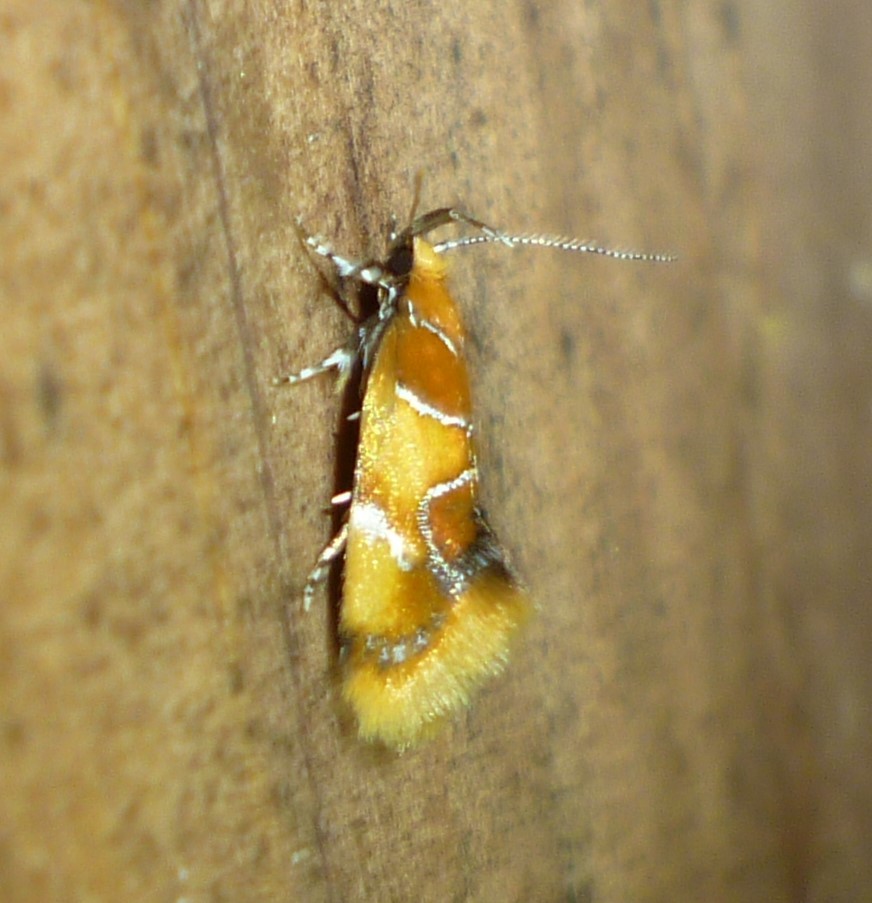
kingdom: Animalia
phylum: Arthropoda
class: Insecta
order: Lepidoptera
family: Oecophoridae
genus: Callima
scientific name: Callima argenticinctella
